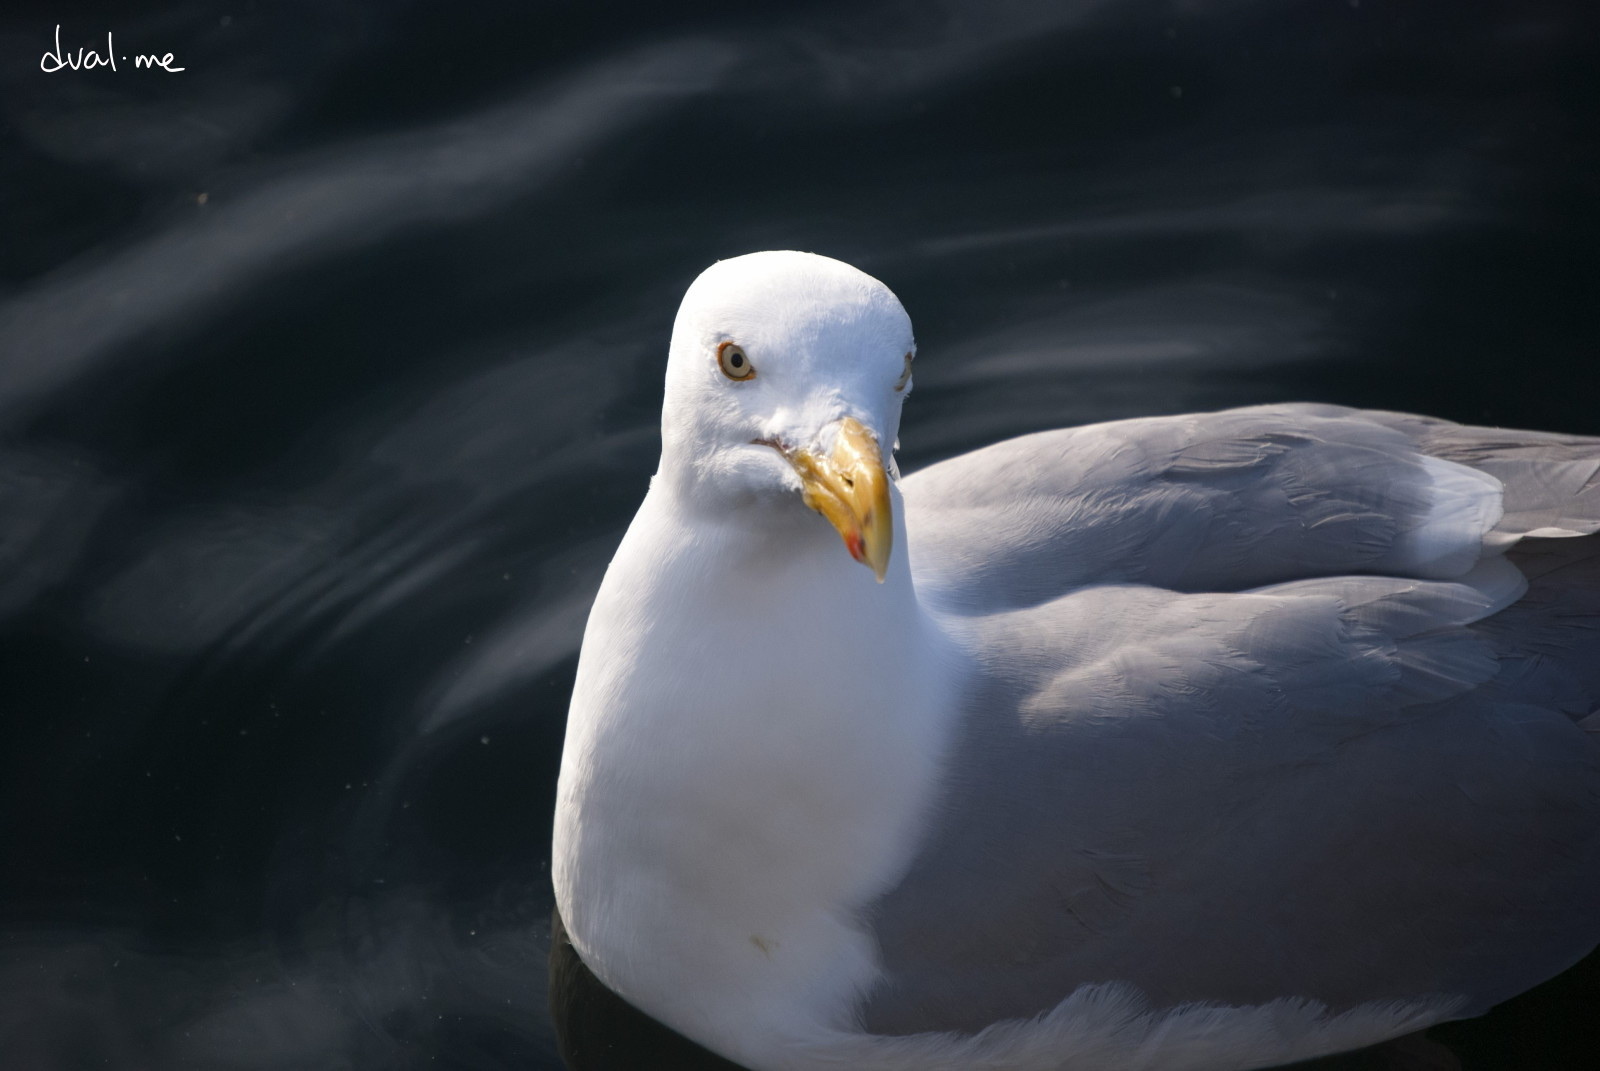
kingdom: Animalia
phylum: Chordata
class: Aves
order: Charadriiformes
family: Laridae
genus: Larus
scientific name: Larus hyperboreus
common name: Glaucous gull
